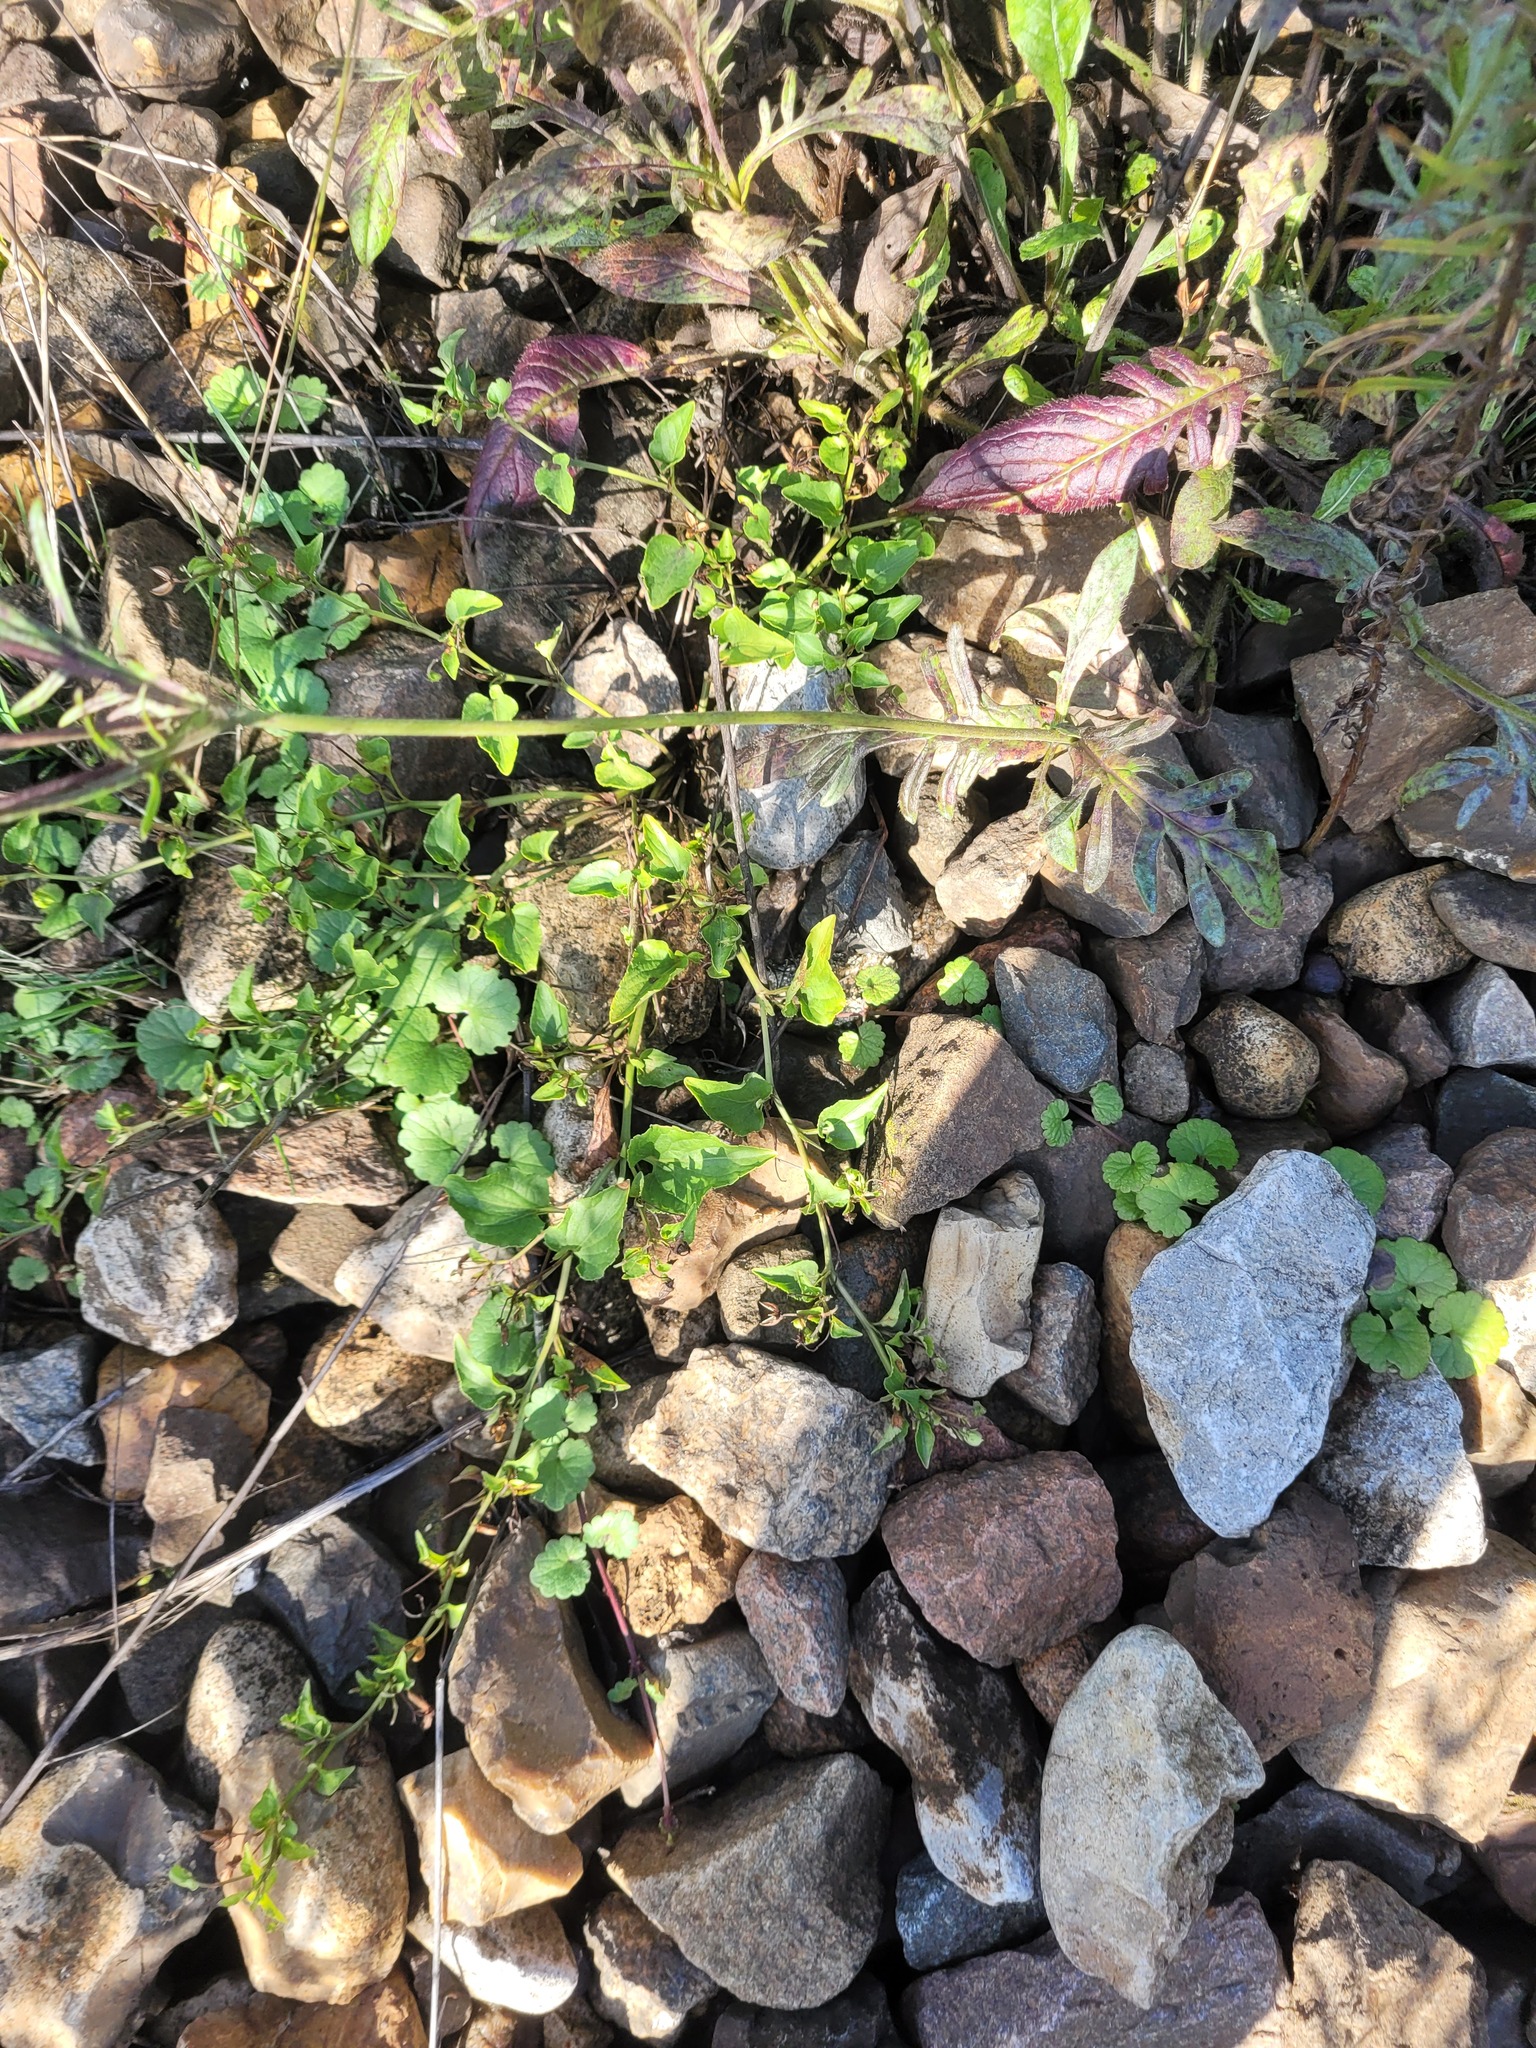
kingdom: Plantae
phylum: Tracheophyta
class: Magnoliopsida
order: Malpighiales
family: Violaceae
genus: Viola
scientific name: Viola canina
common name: Heath dog-violet
